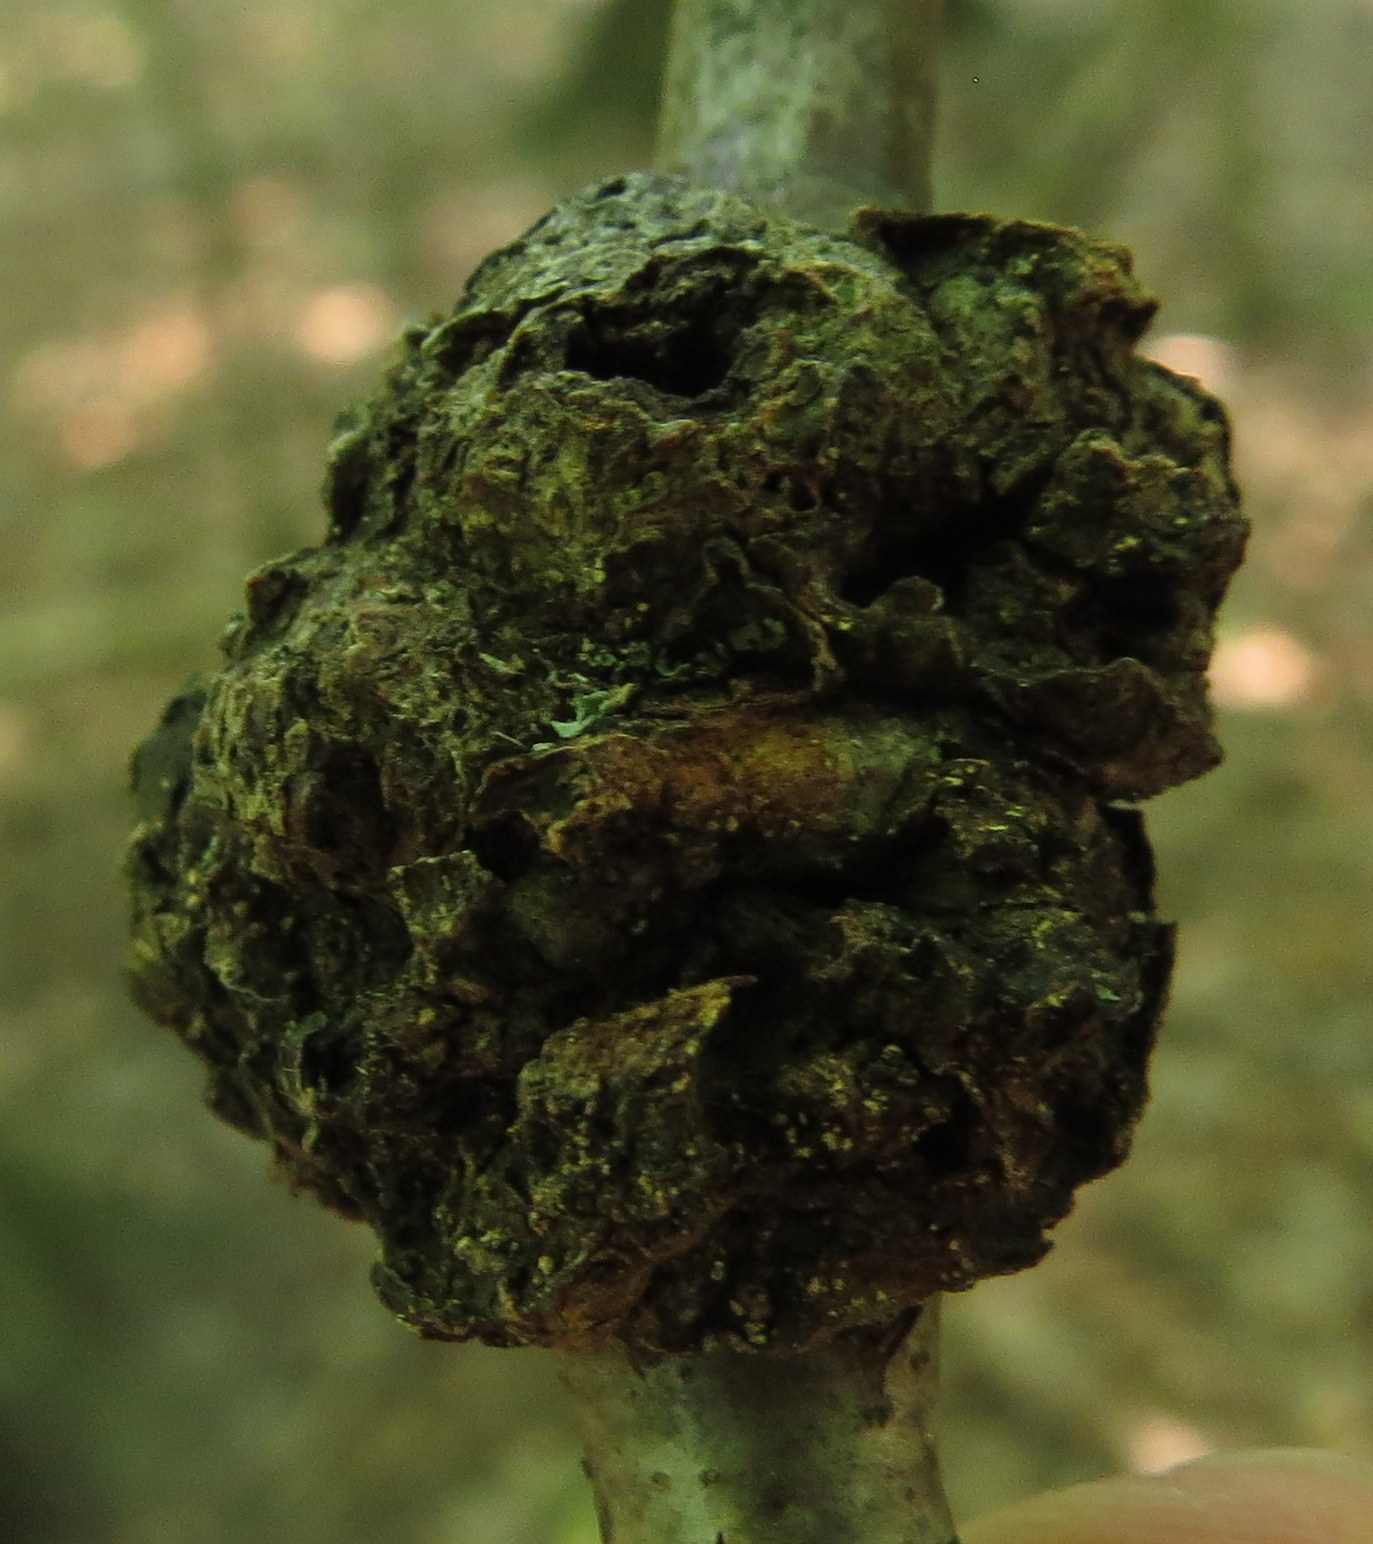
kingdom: Animalia
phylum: Arthropoda
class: Insecta
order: Hymenoptera
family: Cynipidae
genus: Callirhytis
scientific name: Callirhytis
